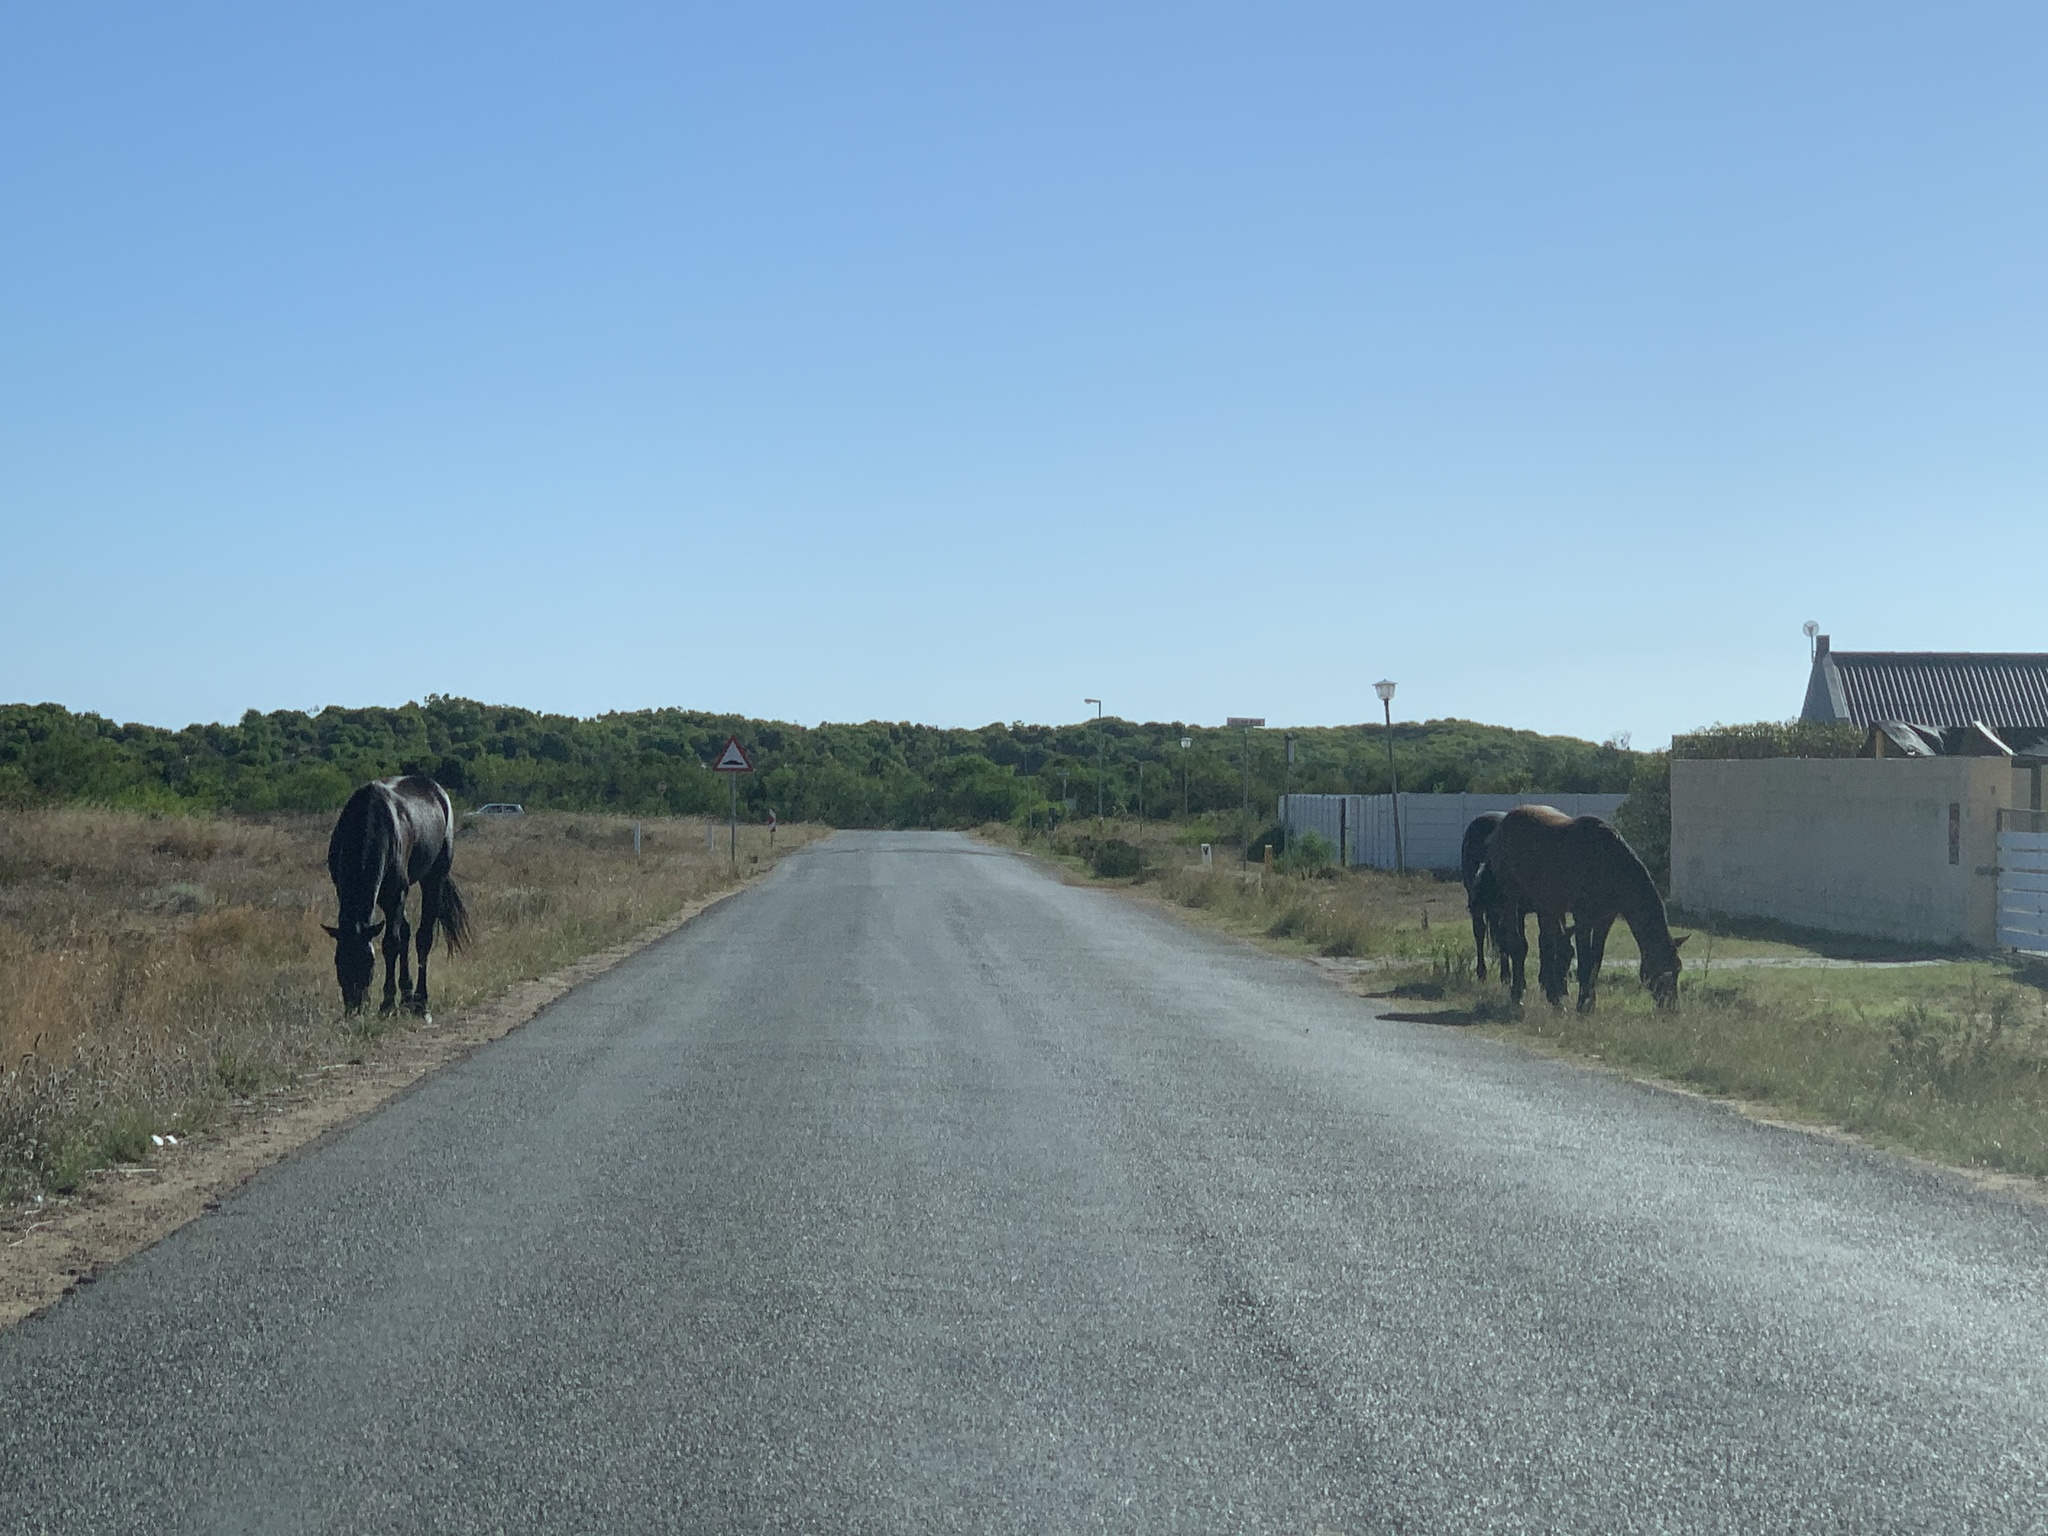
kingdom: Animalia
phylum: Chordata
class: Mammalia
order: Perissodactyla
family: Equidae
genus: Equus
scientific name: Equus caballus
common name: Horse
